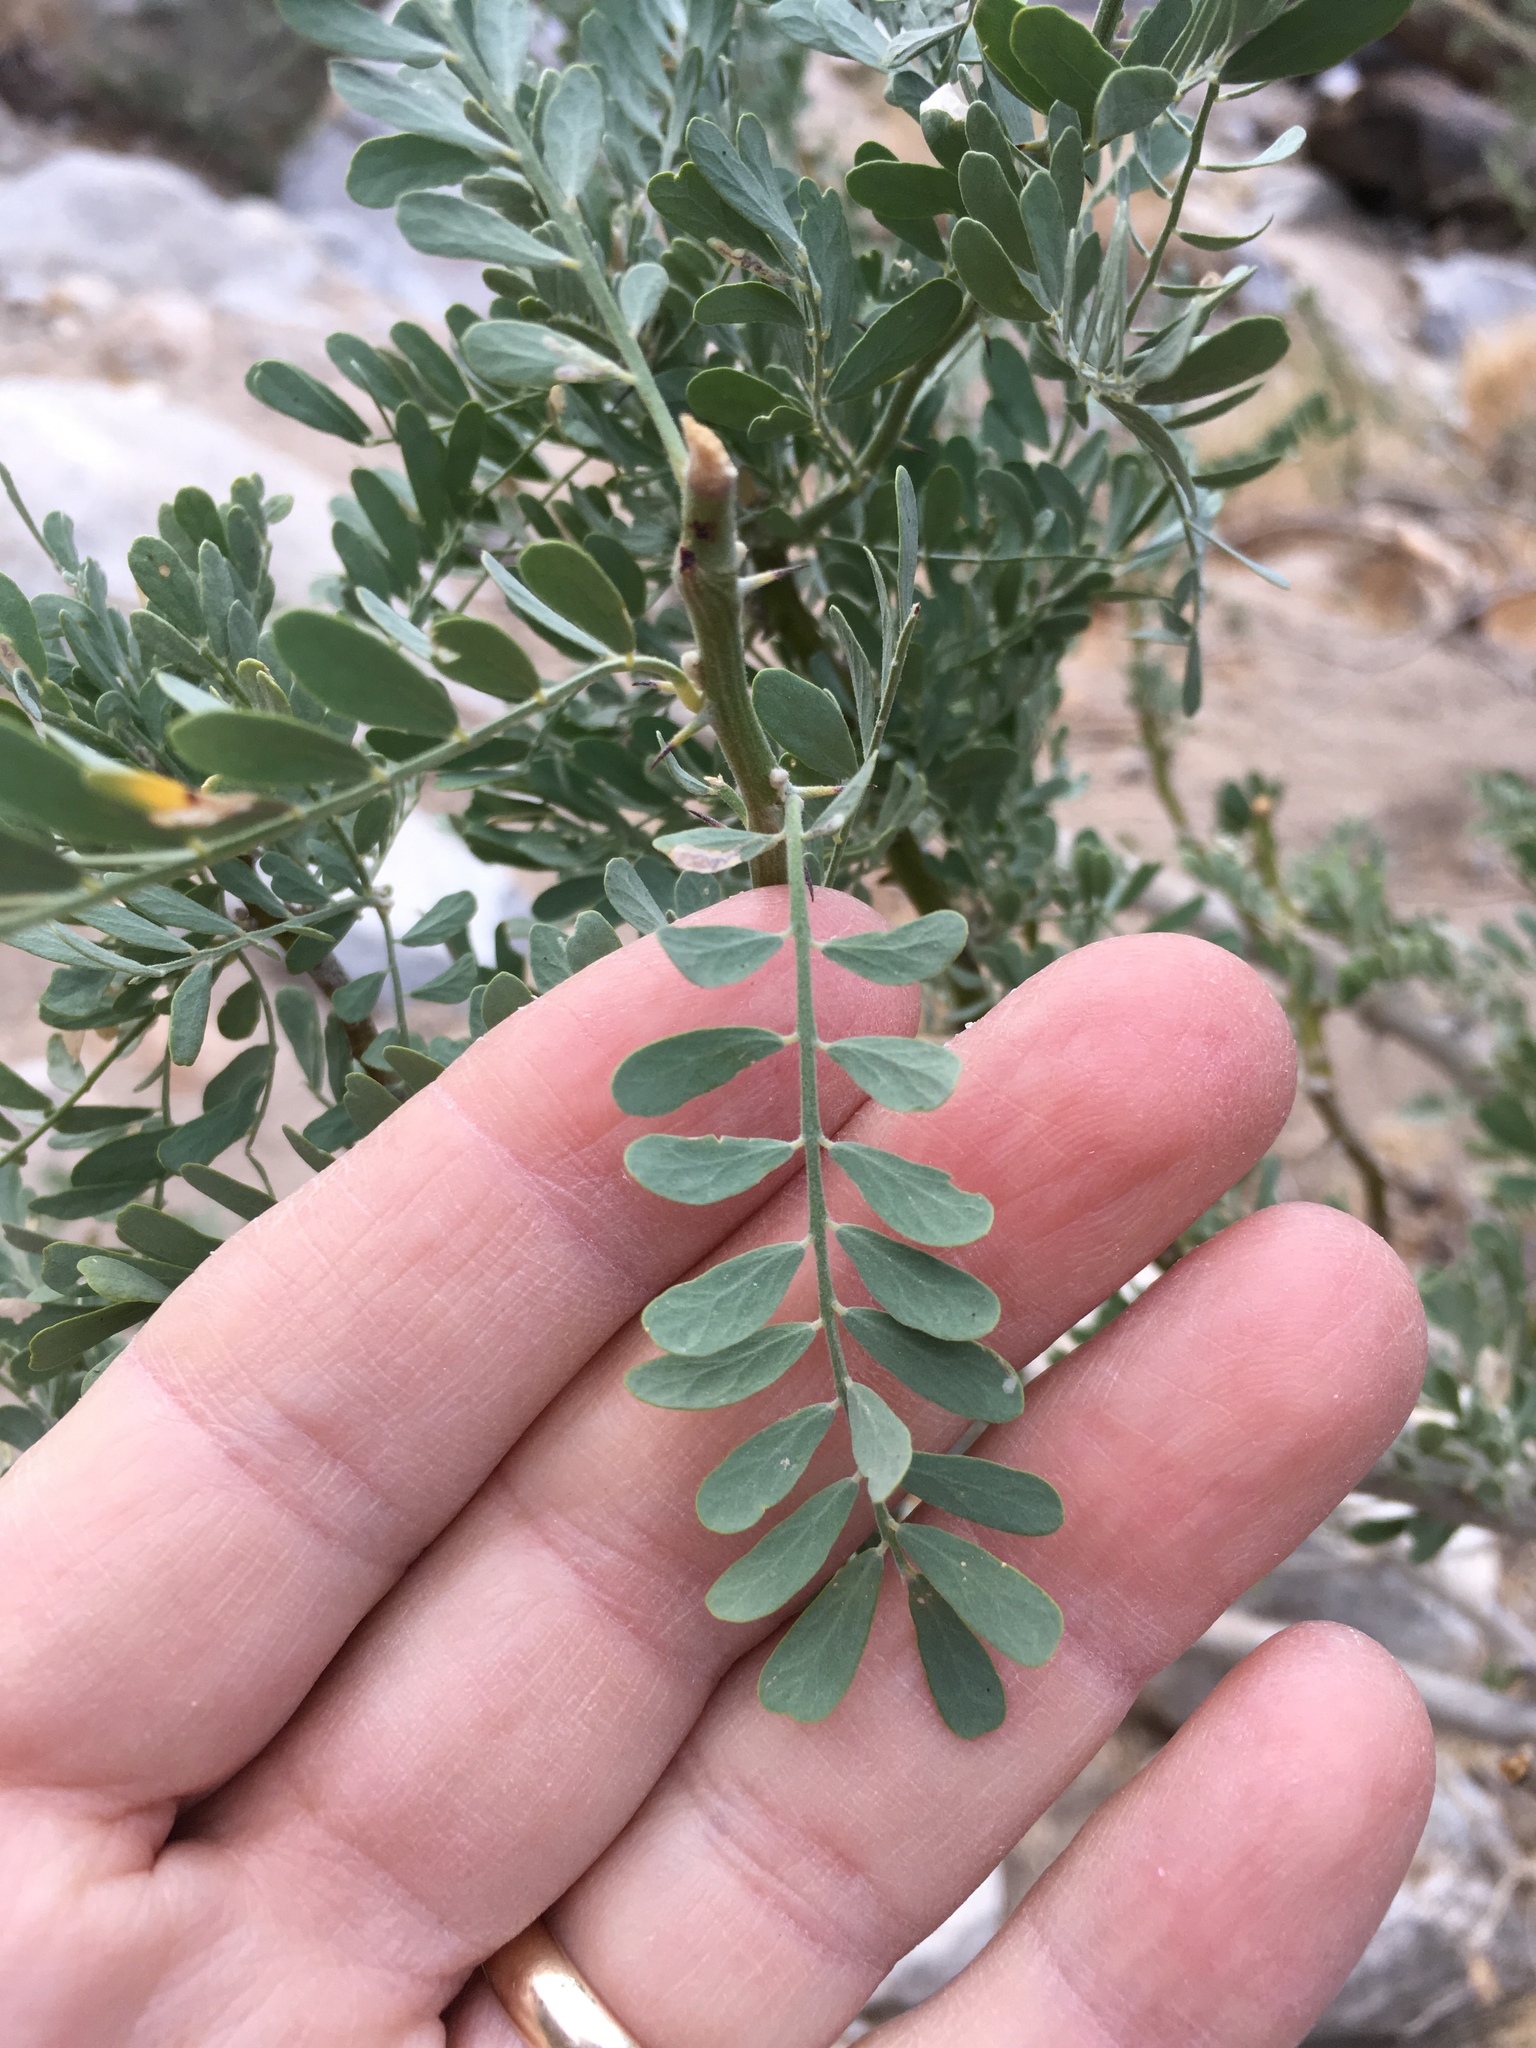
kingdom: Plantae
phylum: Tracheophyta
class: Magnoliopsida
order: Fabales
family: Fabaceae
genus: Olneya
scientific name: Olneya tesota
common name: Desert ironwood
